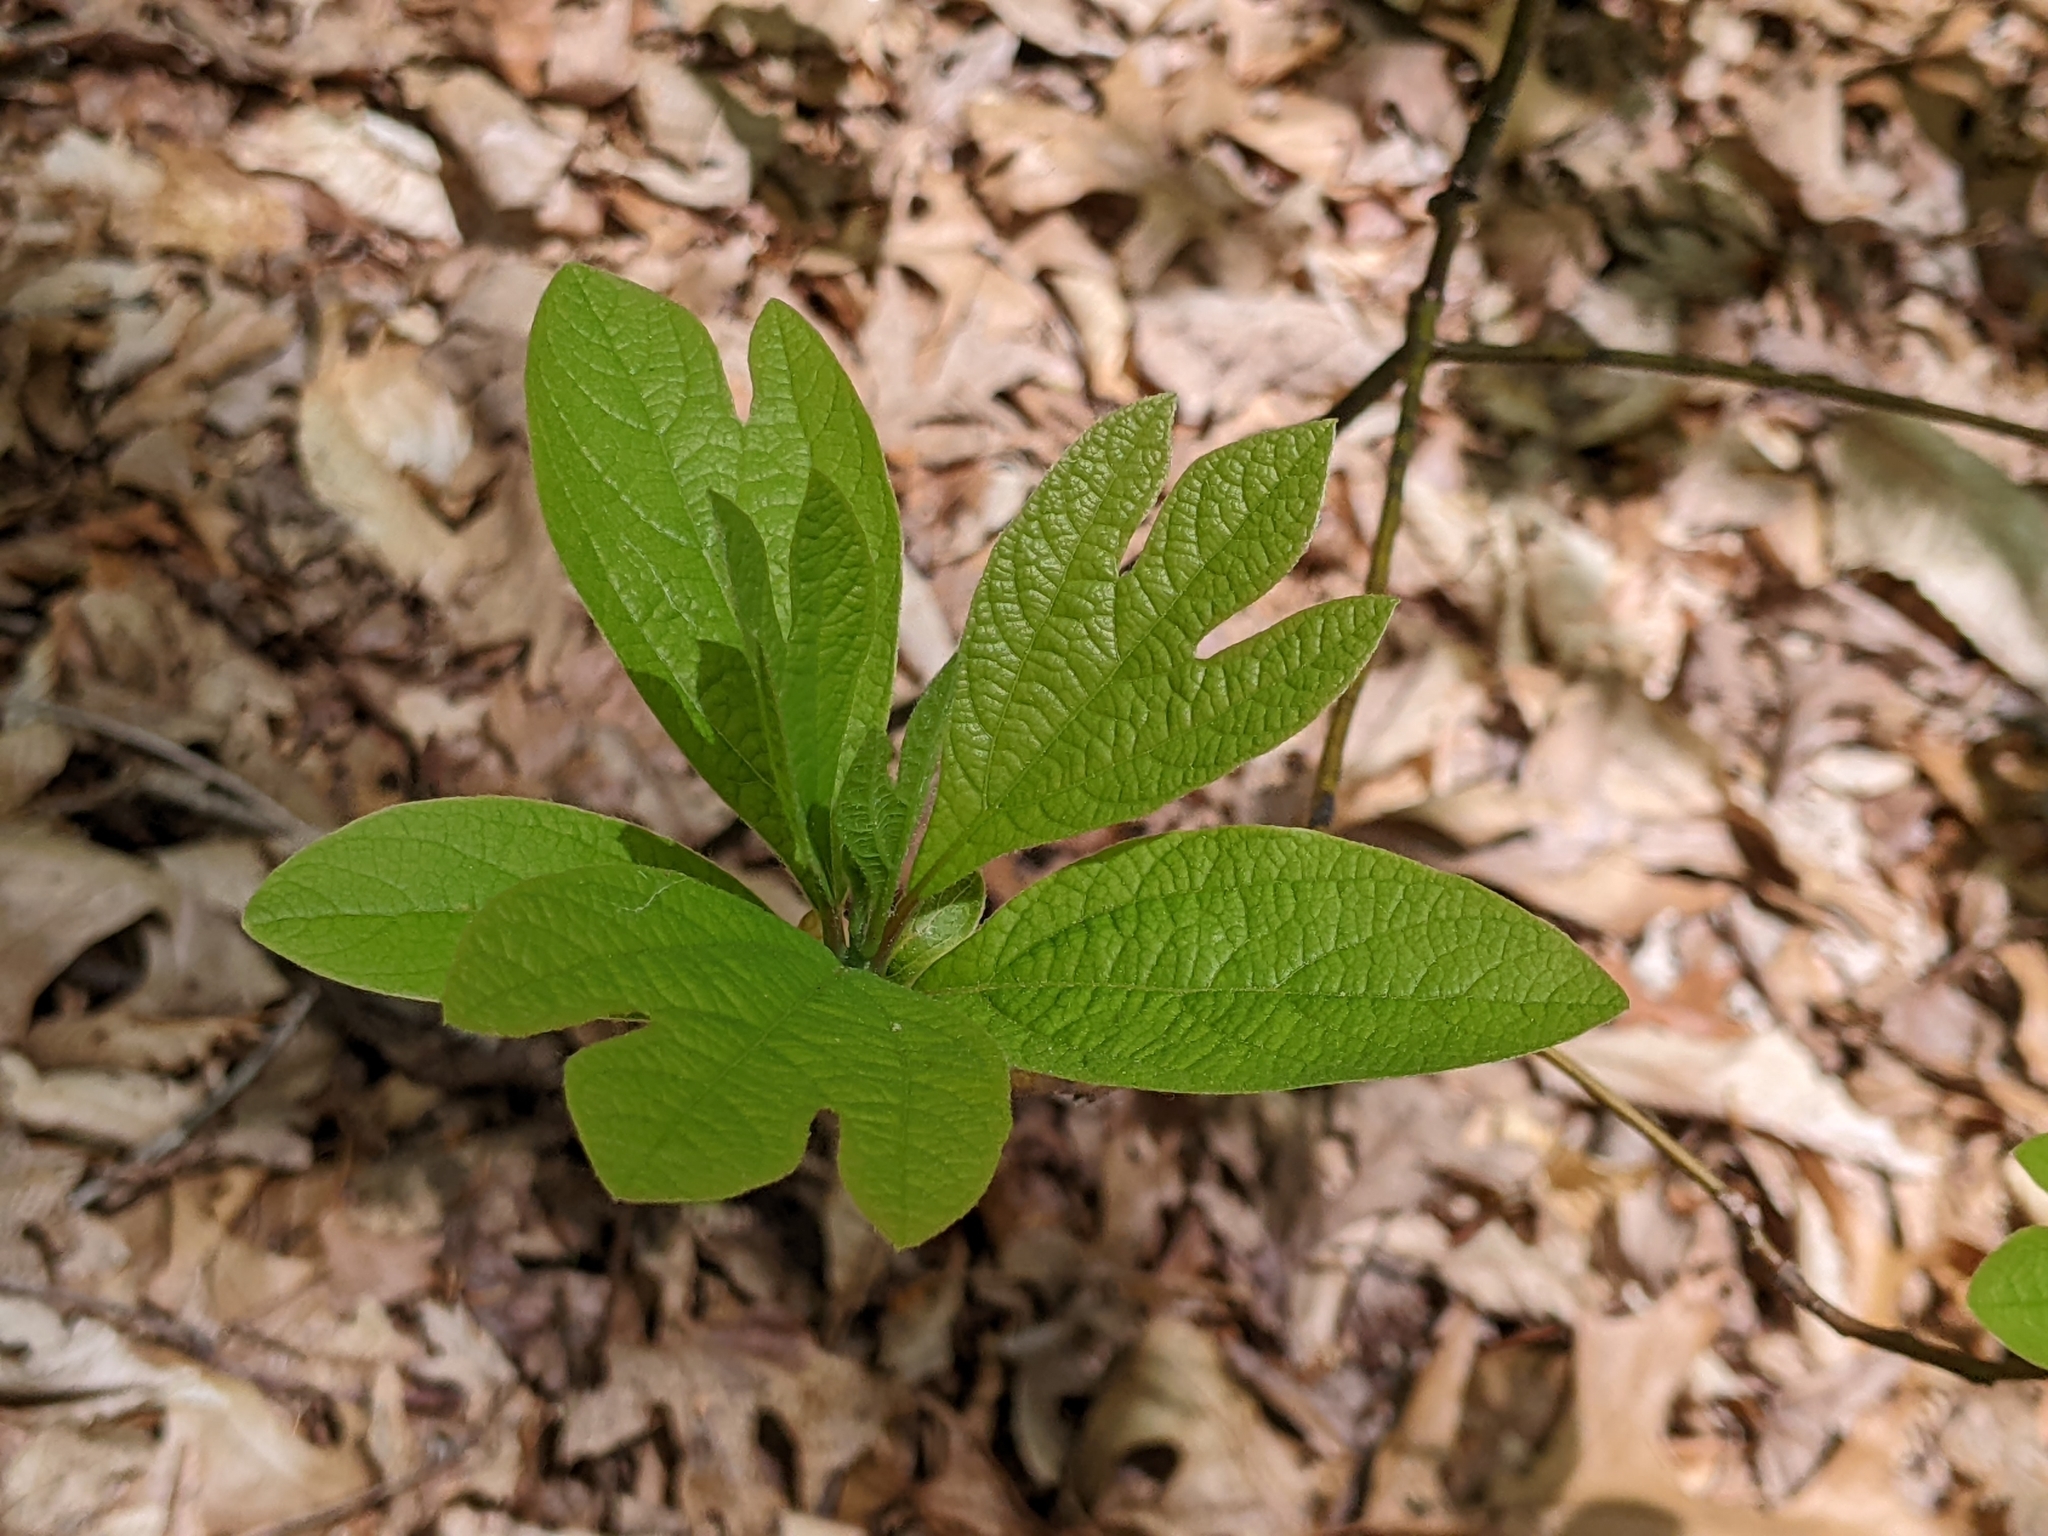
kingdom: Plantae
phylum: Tracheophyta
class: Magnoliopsida
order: Laurales
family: Lauraceae
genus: Sassafras
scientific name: Sassafras albidum
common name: Sassafras
